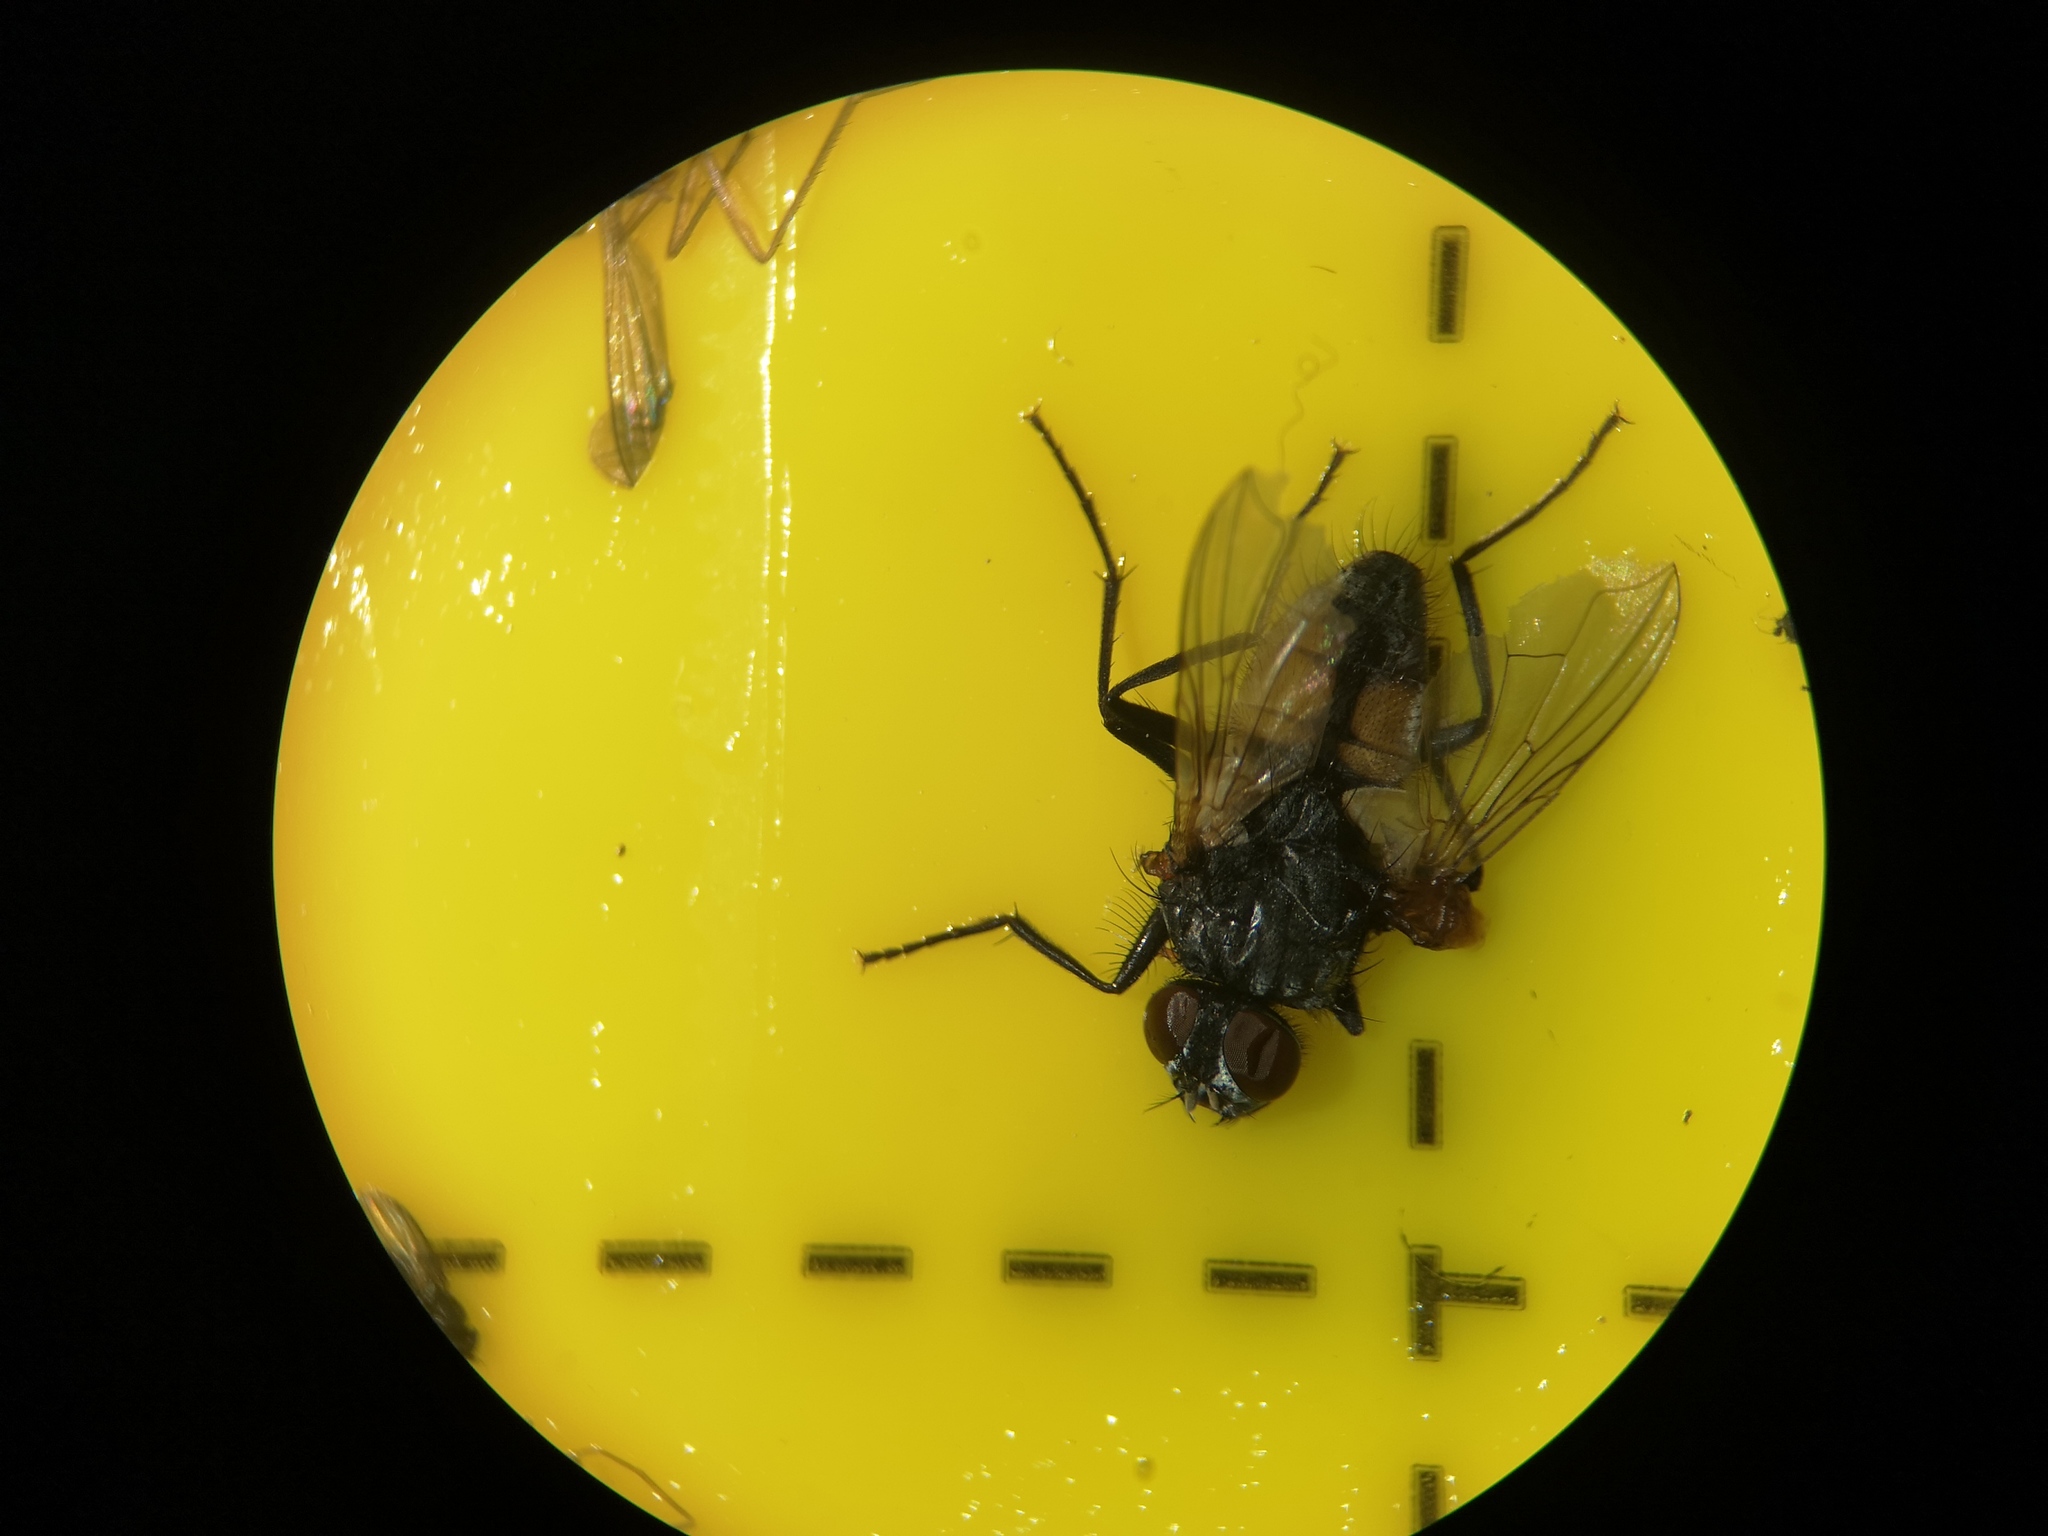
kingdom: Animalia
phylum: Arthropoda
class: Insecta
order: Diptera
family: Muscidae
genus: Musca
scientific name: Musca domestica
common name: House fly
